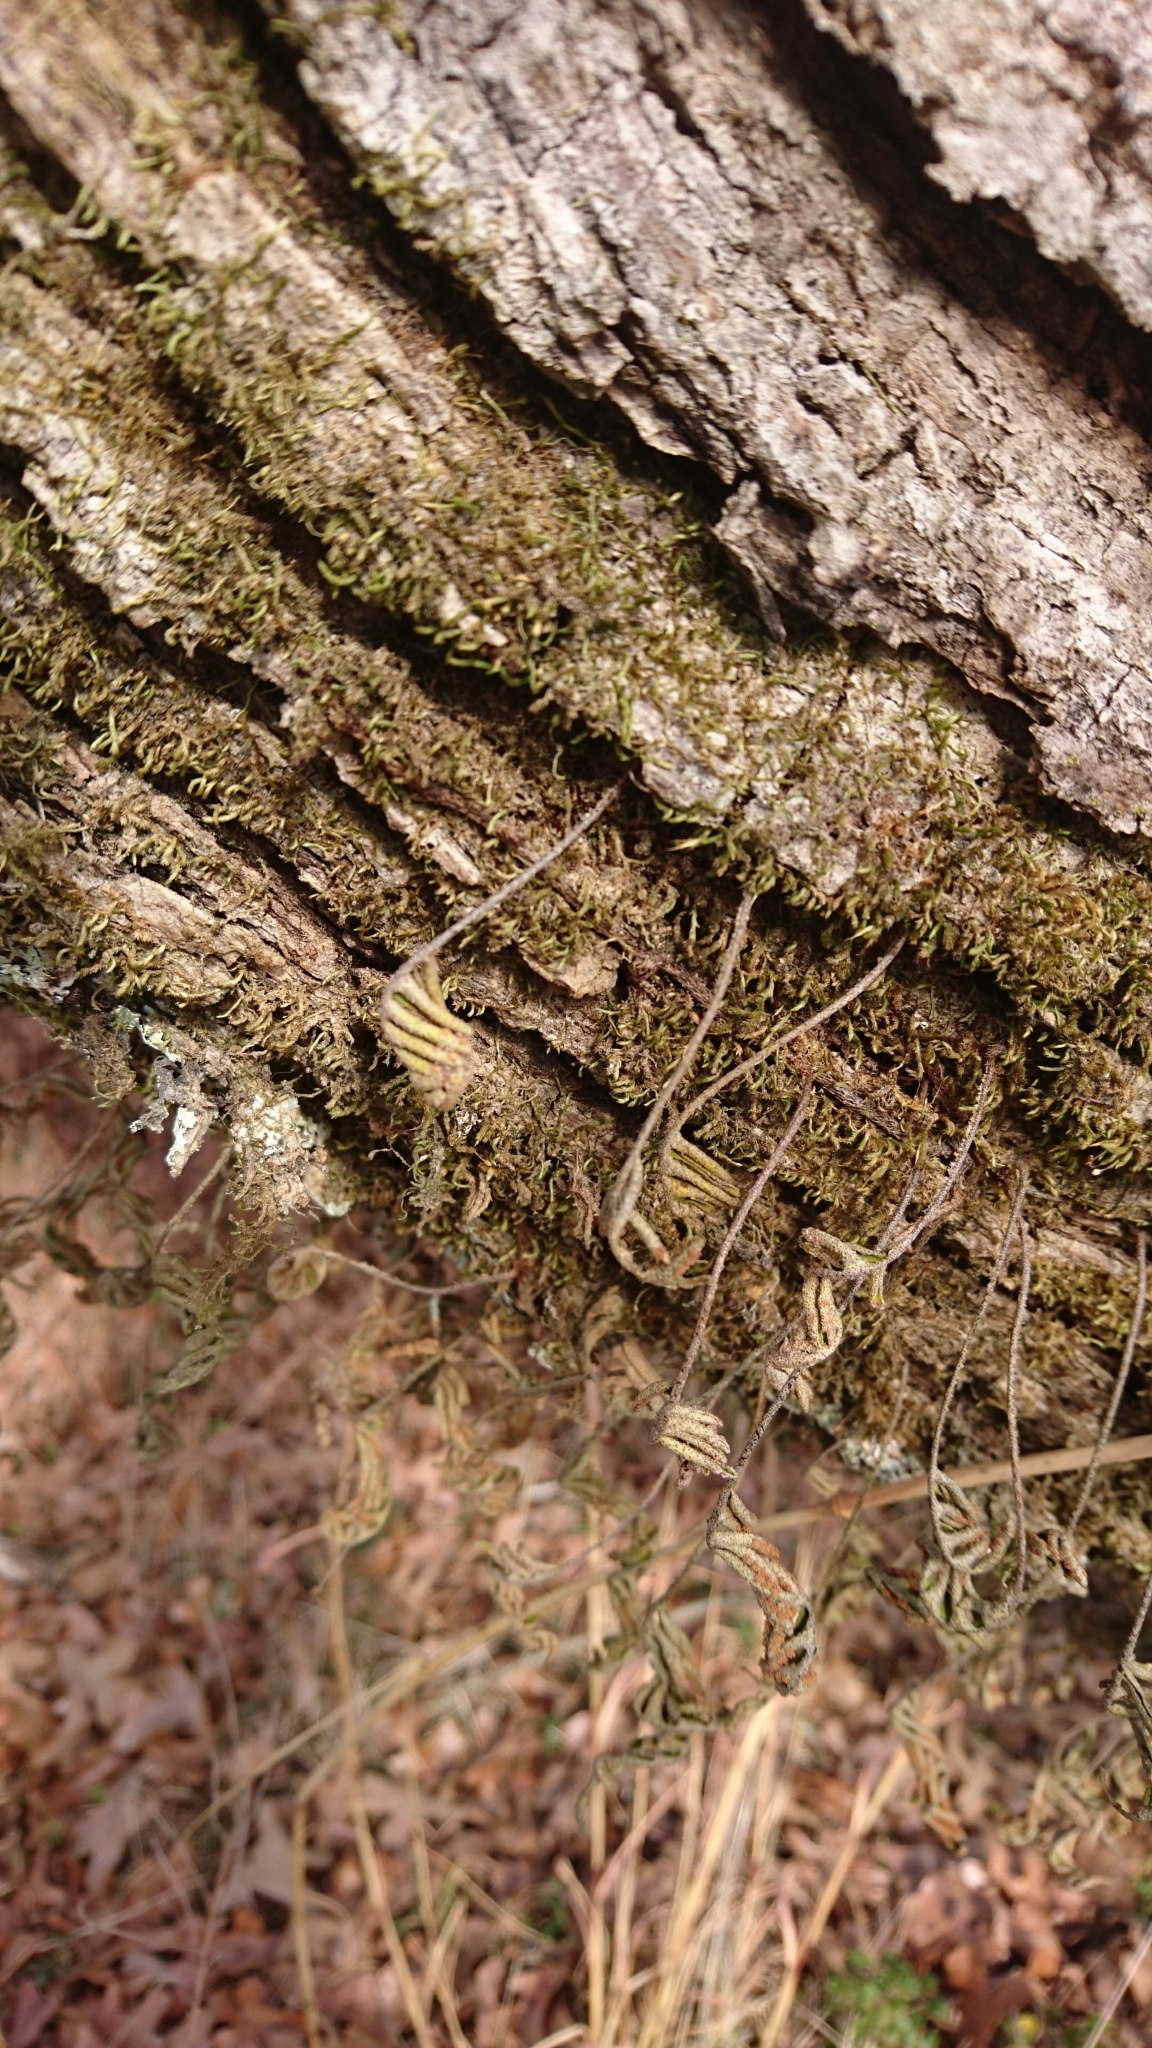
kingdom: Plantae
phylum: Tracheophyta
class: Polypodiopsida
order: Polypodiales
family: Polypodiaceae
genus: Pleopeltis
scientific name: Pleopeltis michauxiana
